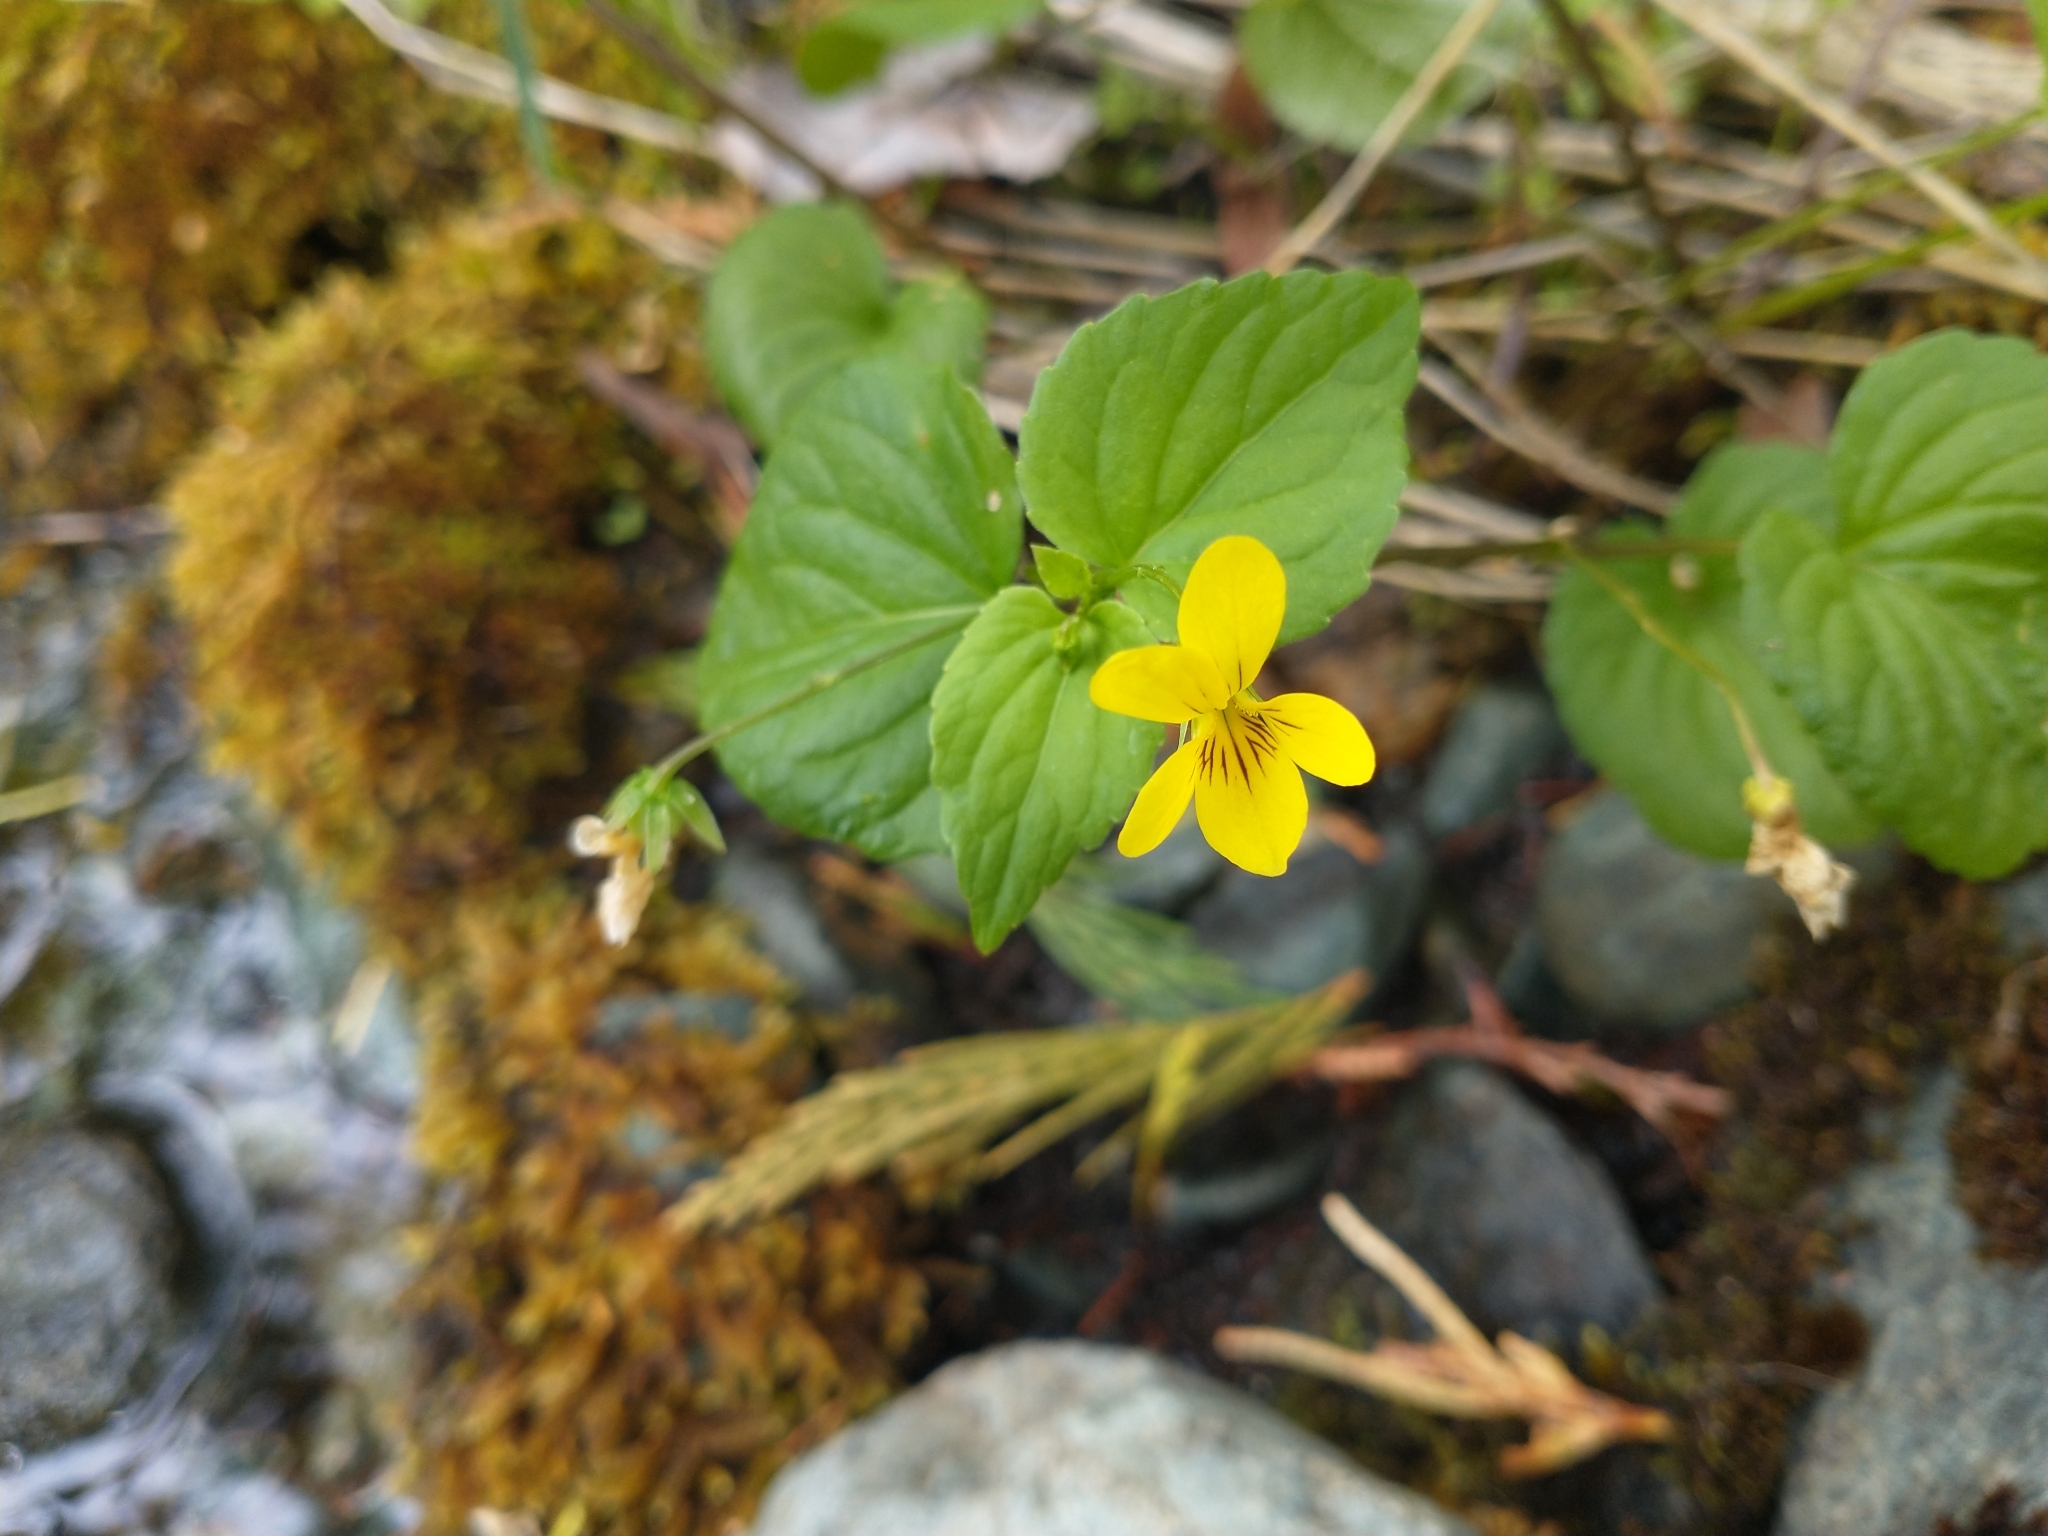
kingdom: Plantae
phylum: Tracheophyta
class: Magnoliopsida
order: Malpighiales
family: Violaceae
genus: Viola
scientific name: Viola glabella
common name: Stream violet
